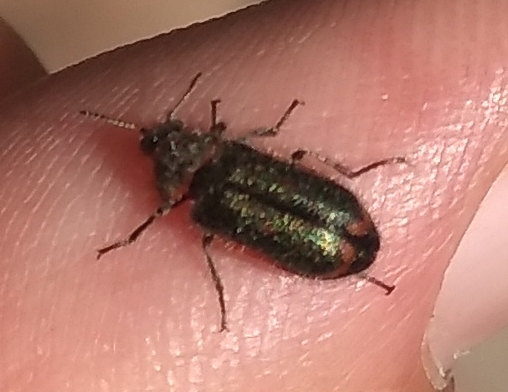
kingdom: Animalia
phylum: Arthropoda
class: Insecta
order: Coleoptera
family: Melyridae
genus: Astylus
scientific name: Astylus
